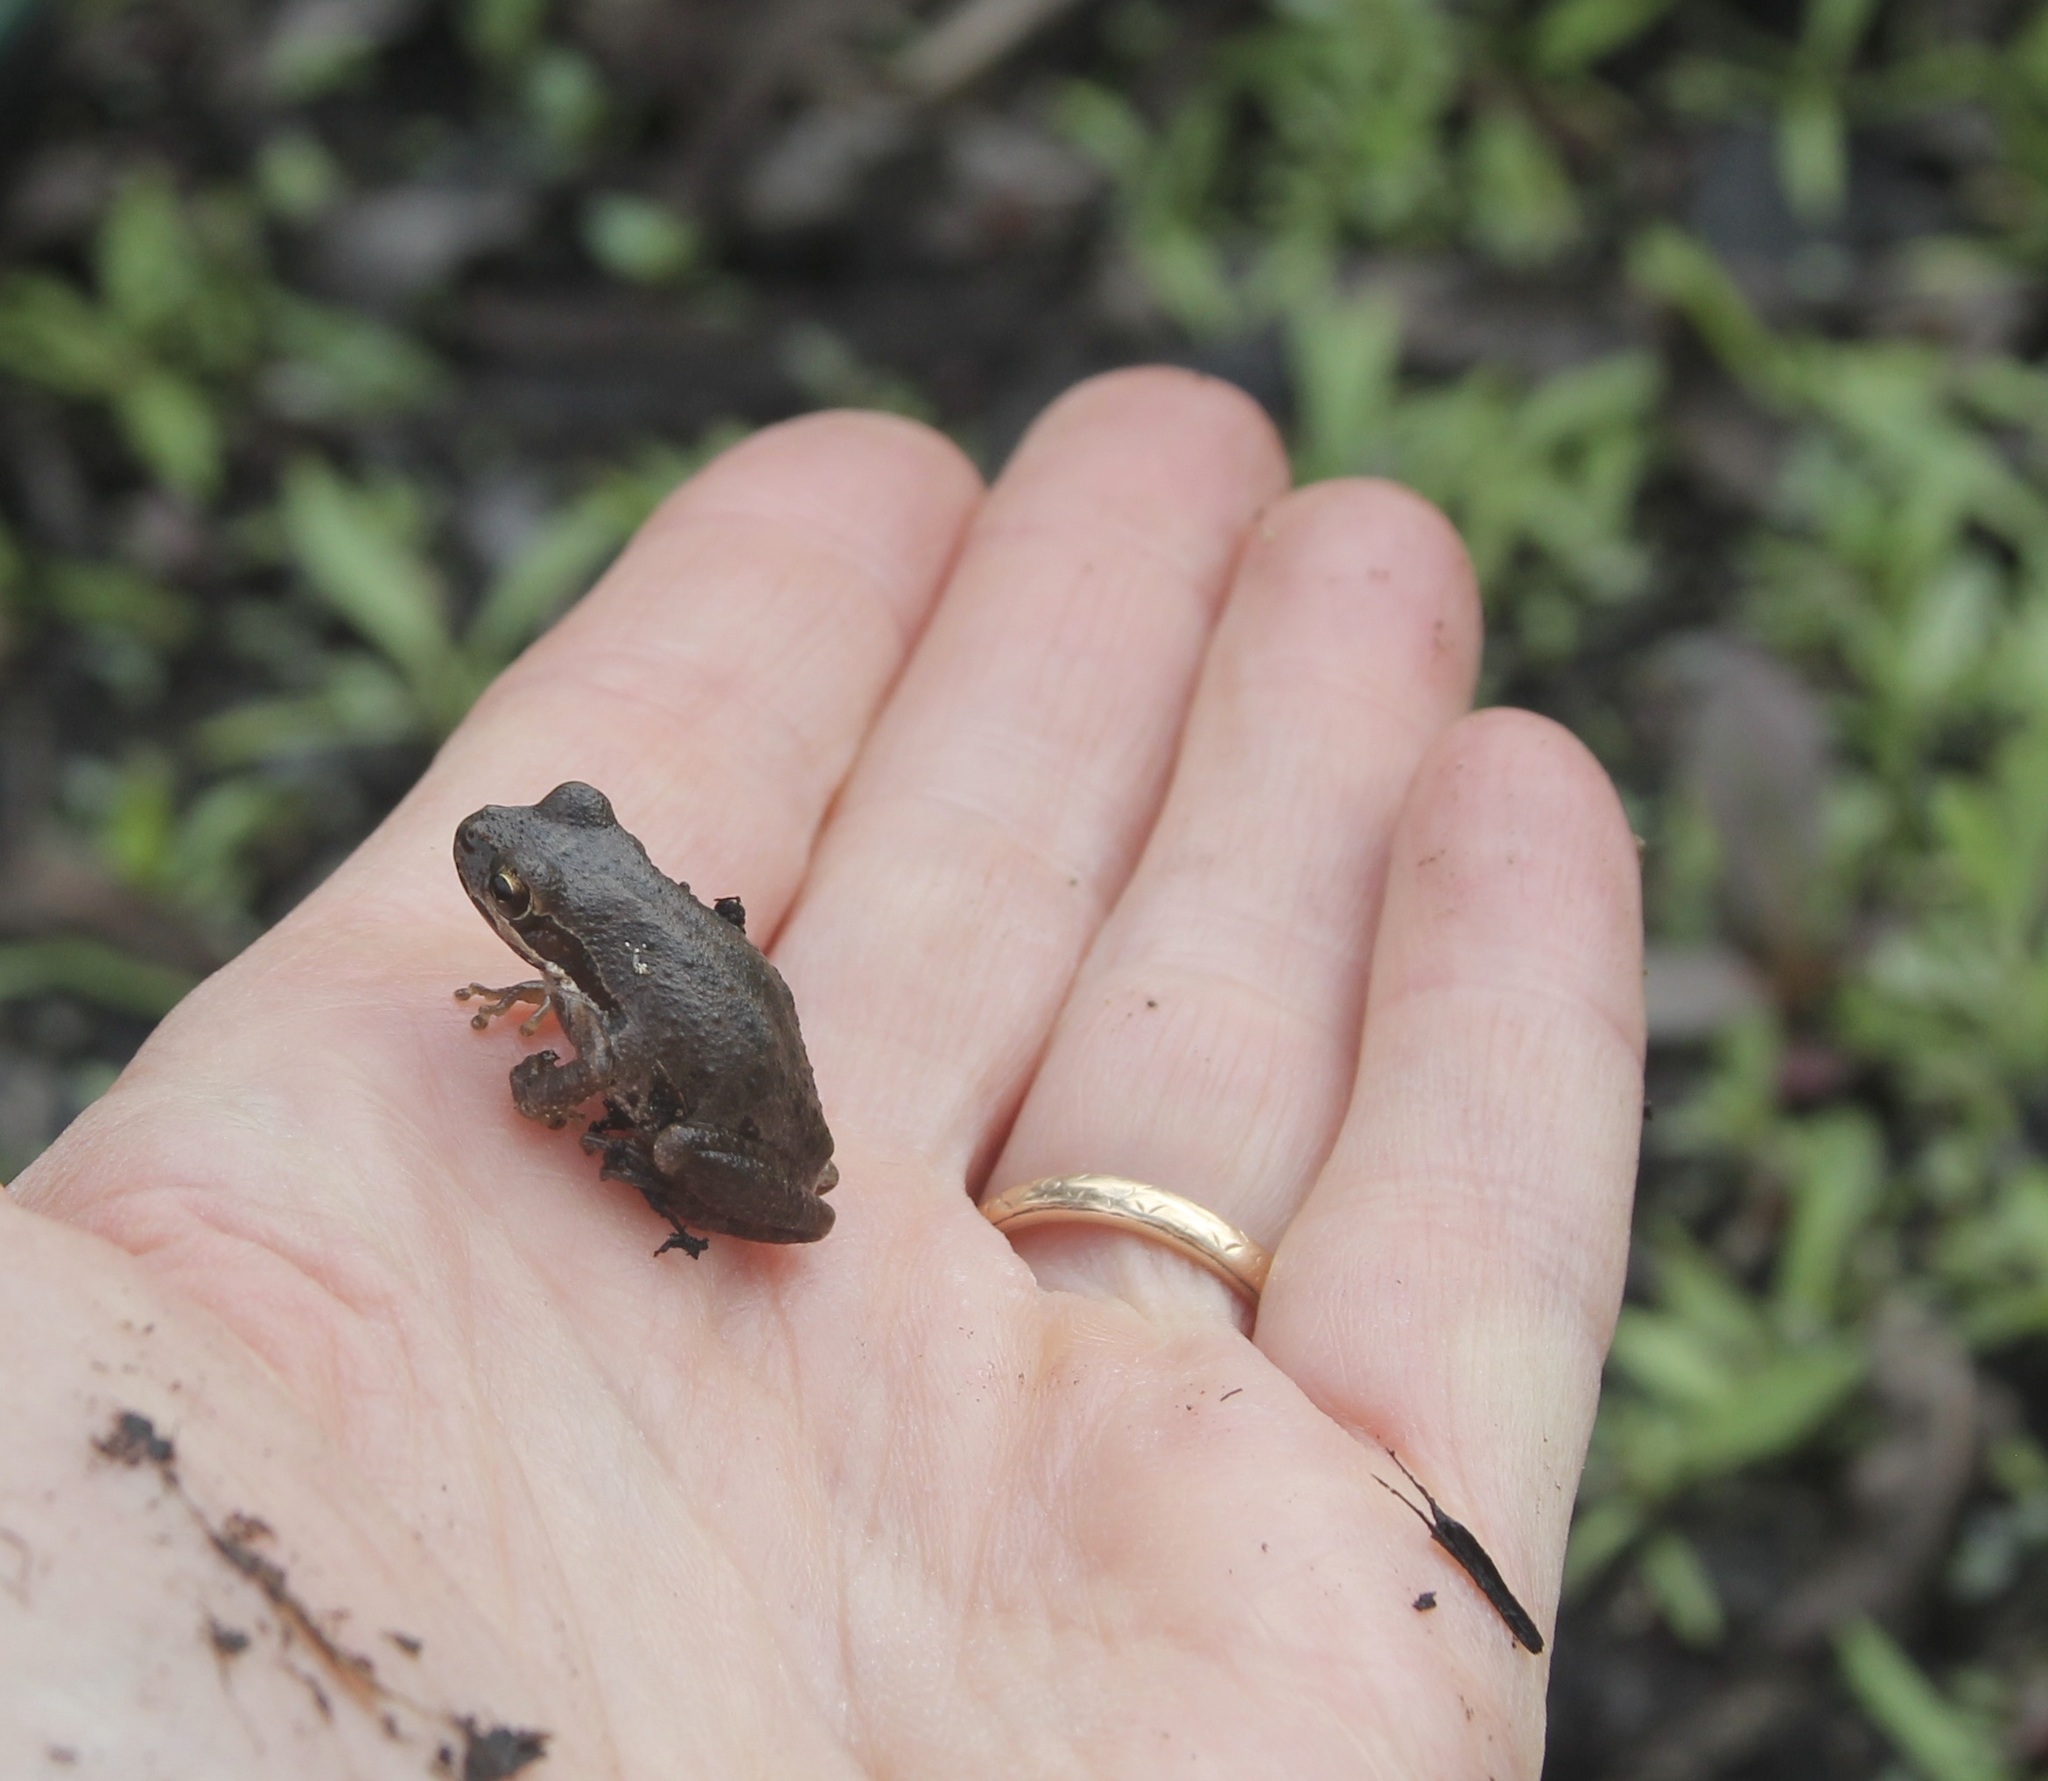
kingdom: Animalia
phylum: Chordata
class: Amphibia
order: Anura
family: Hylidae
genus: Pseudacris
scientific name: Pseudacris regilla
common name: Pacific chorus frog
